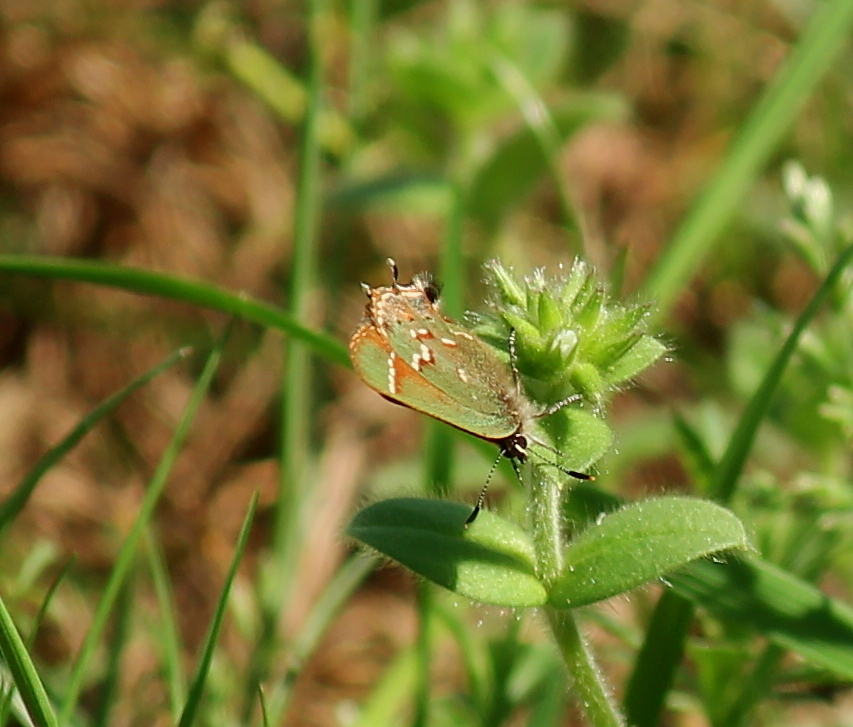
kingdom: Animalia
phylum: Arthropoda
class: Insecta
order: Lepidoptera
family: Lycaenidae
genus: Mitoura
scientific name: Mitoura gryneus
